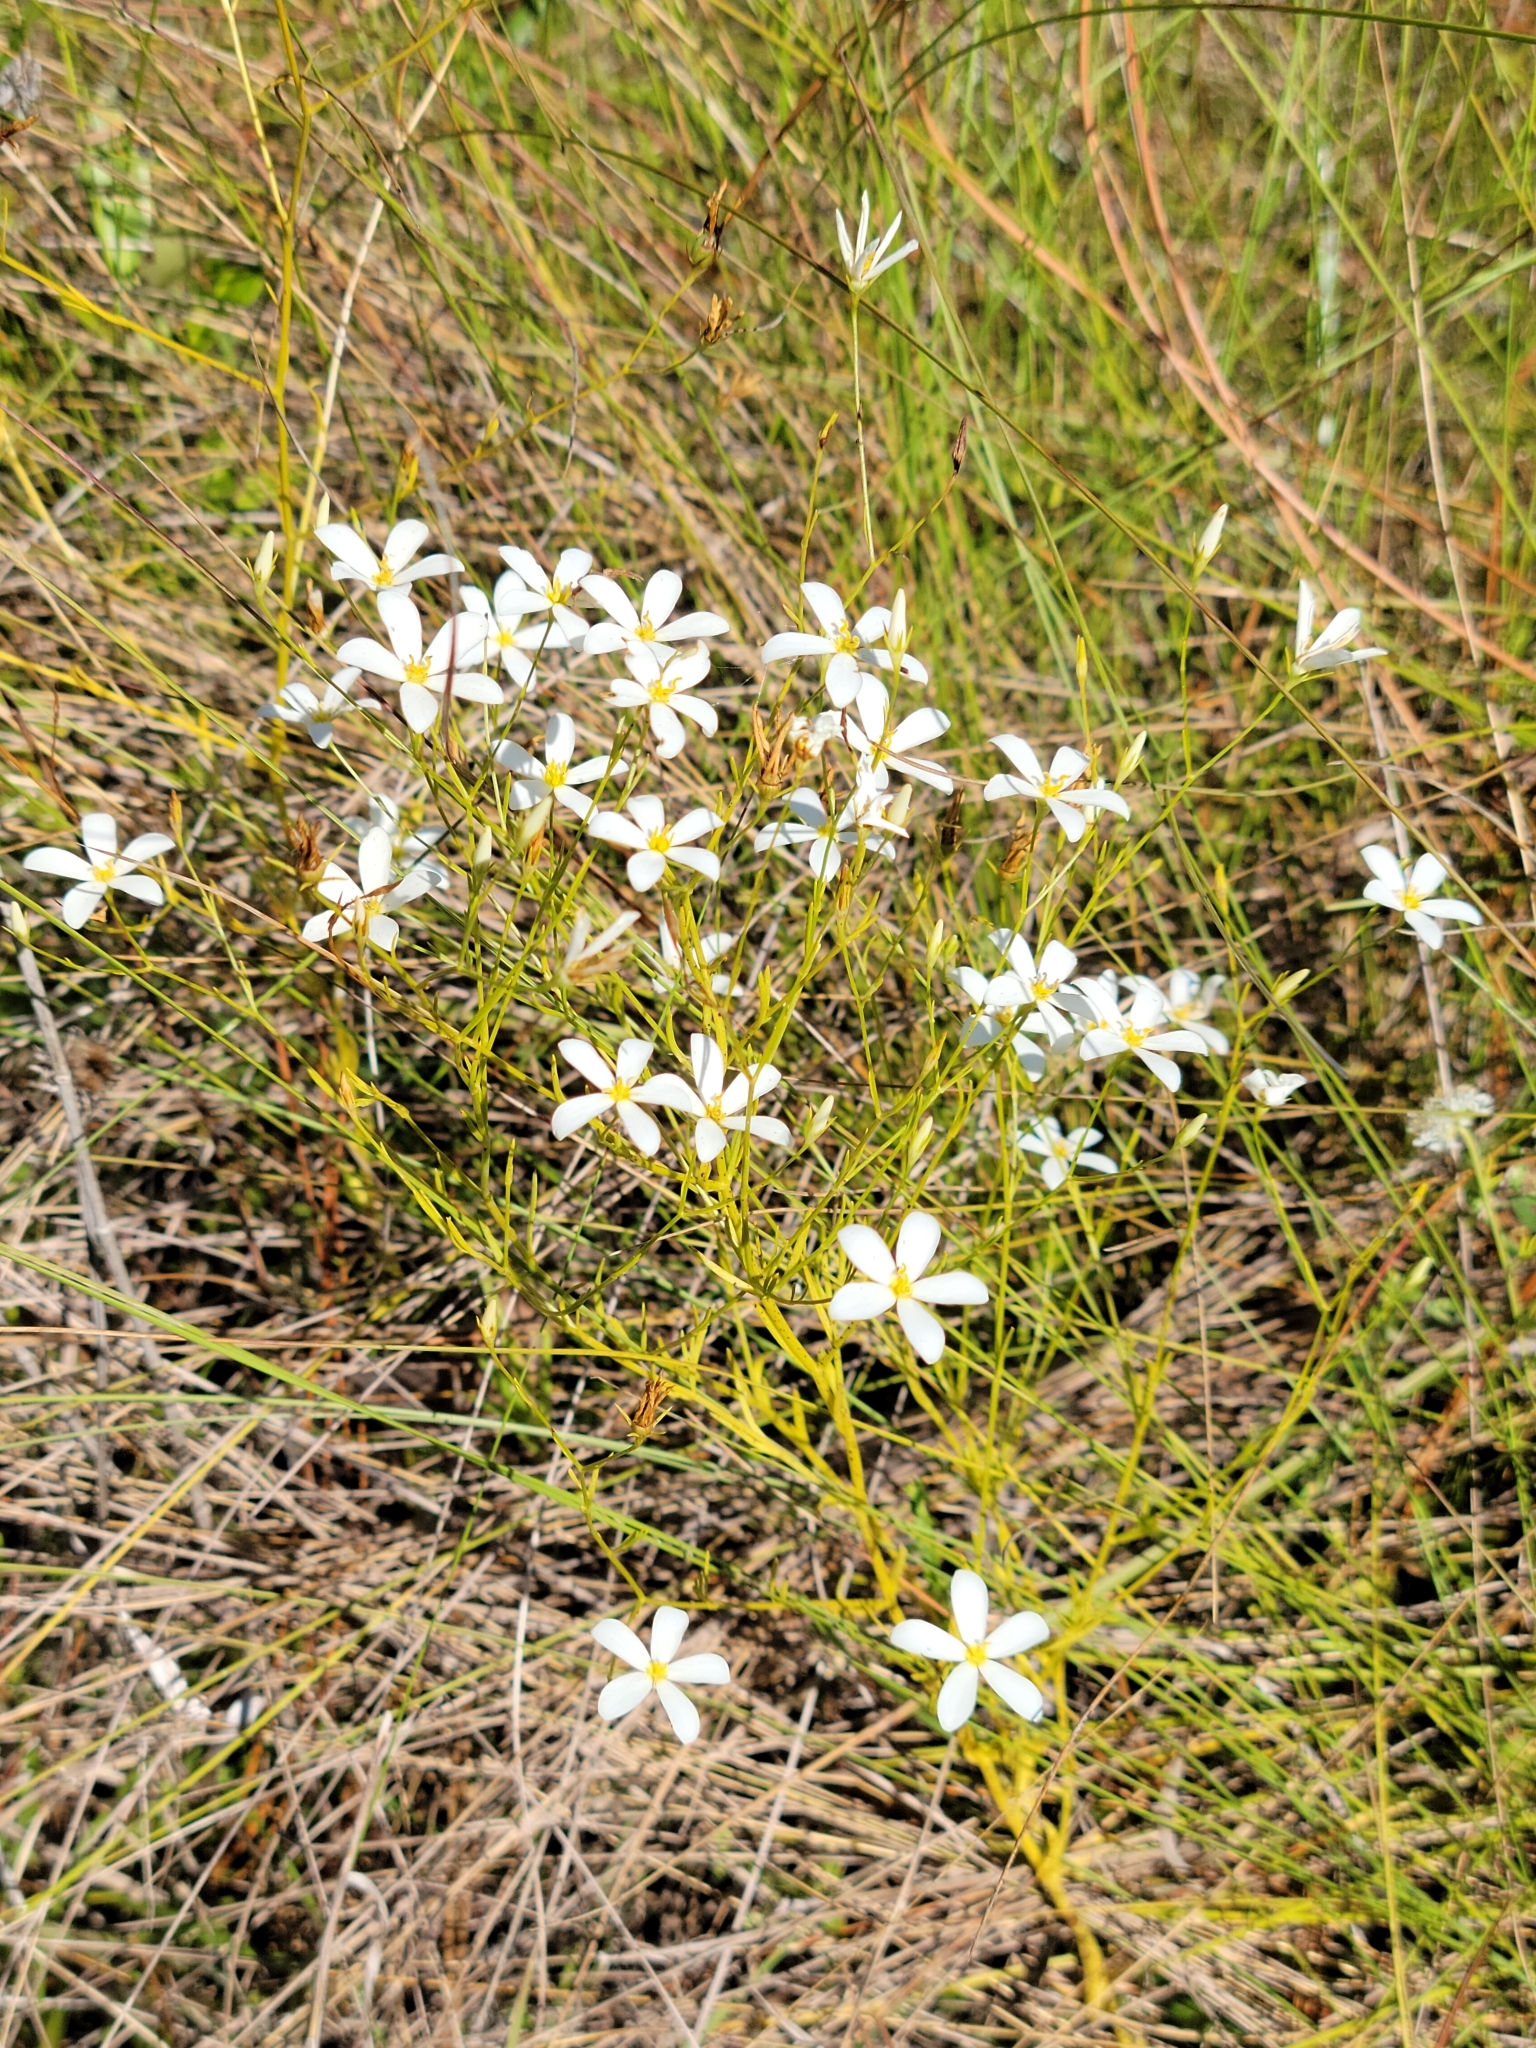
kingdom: Plantae
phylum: Tracheophyta
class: Magnoliopsida
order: Gentianales
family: Gentianaceae
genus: Sabatia
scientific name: Sabatia brevifolia
